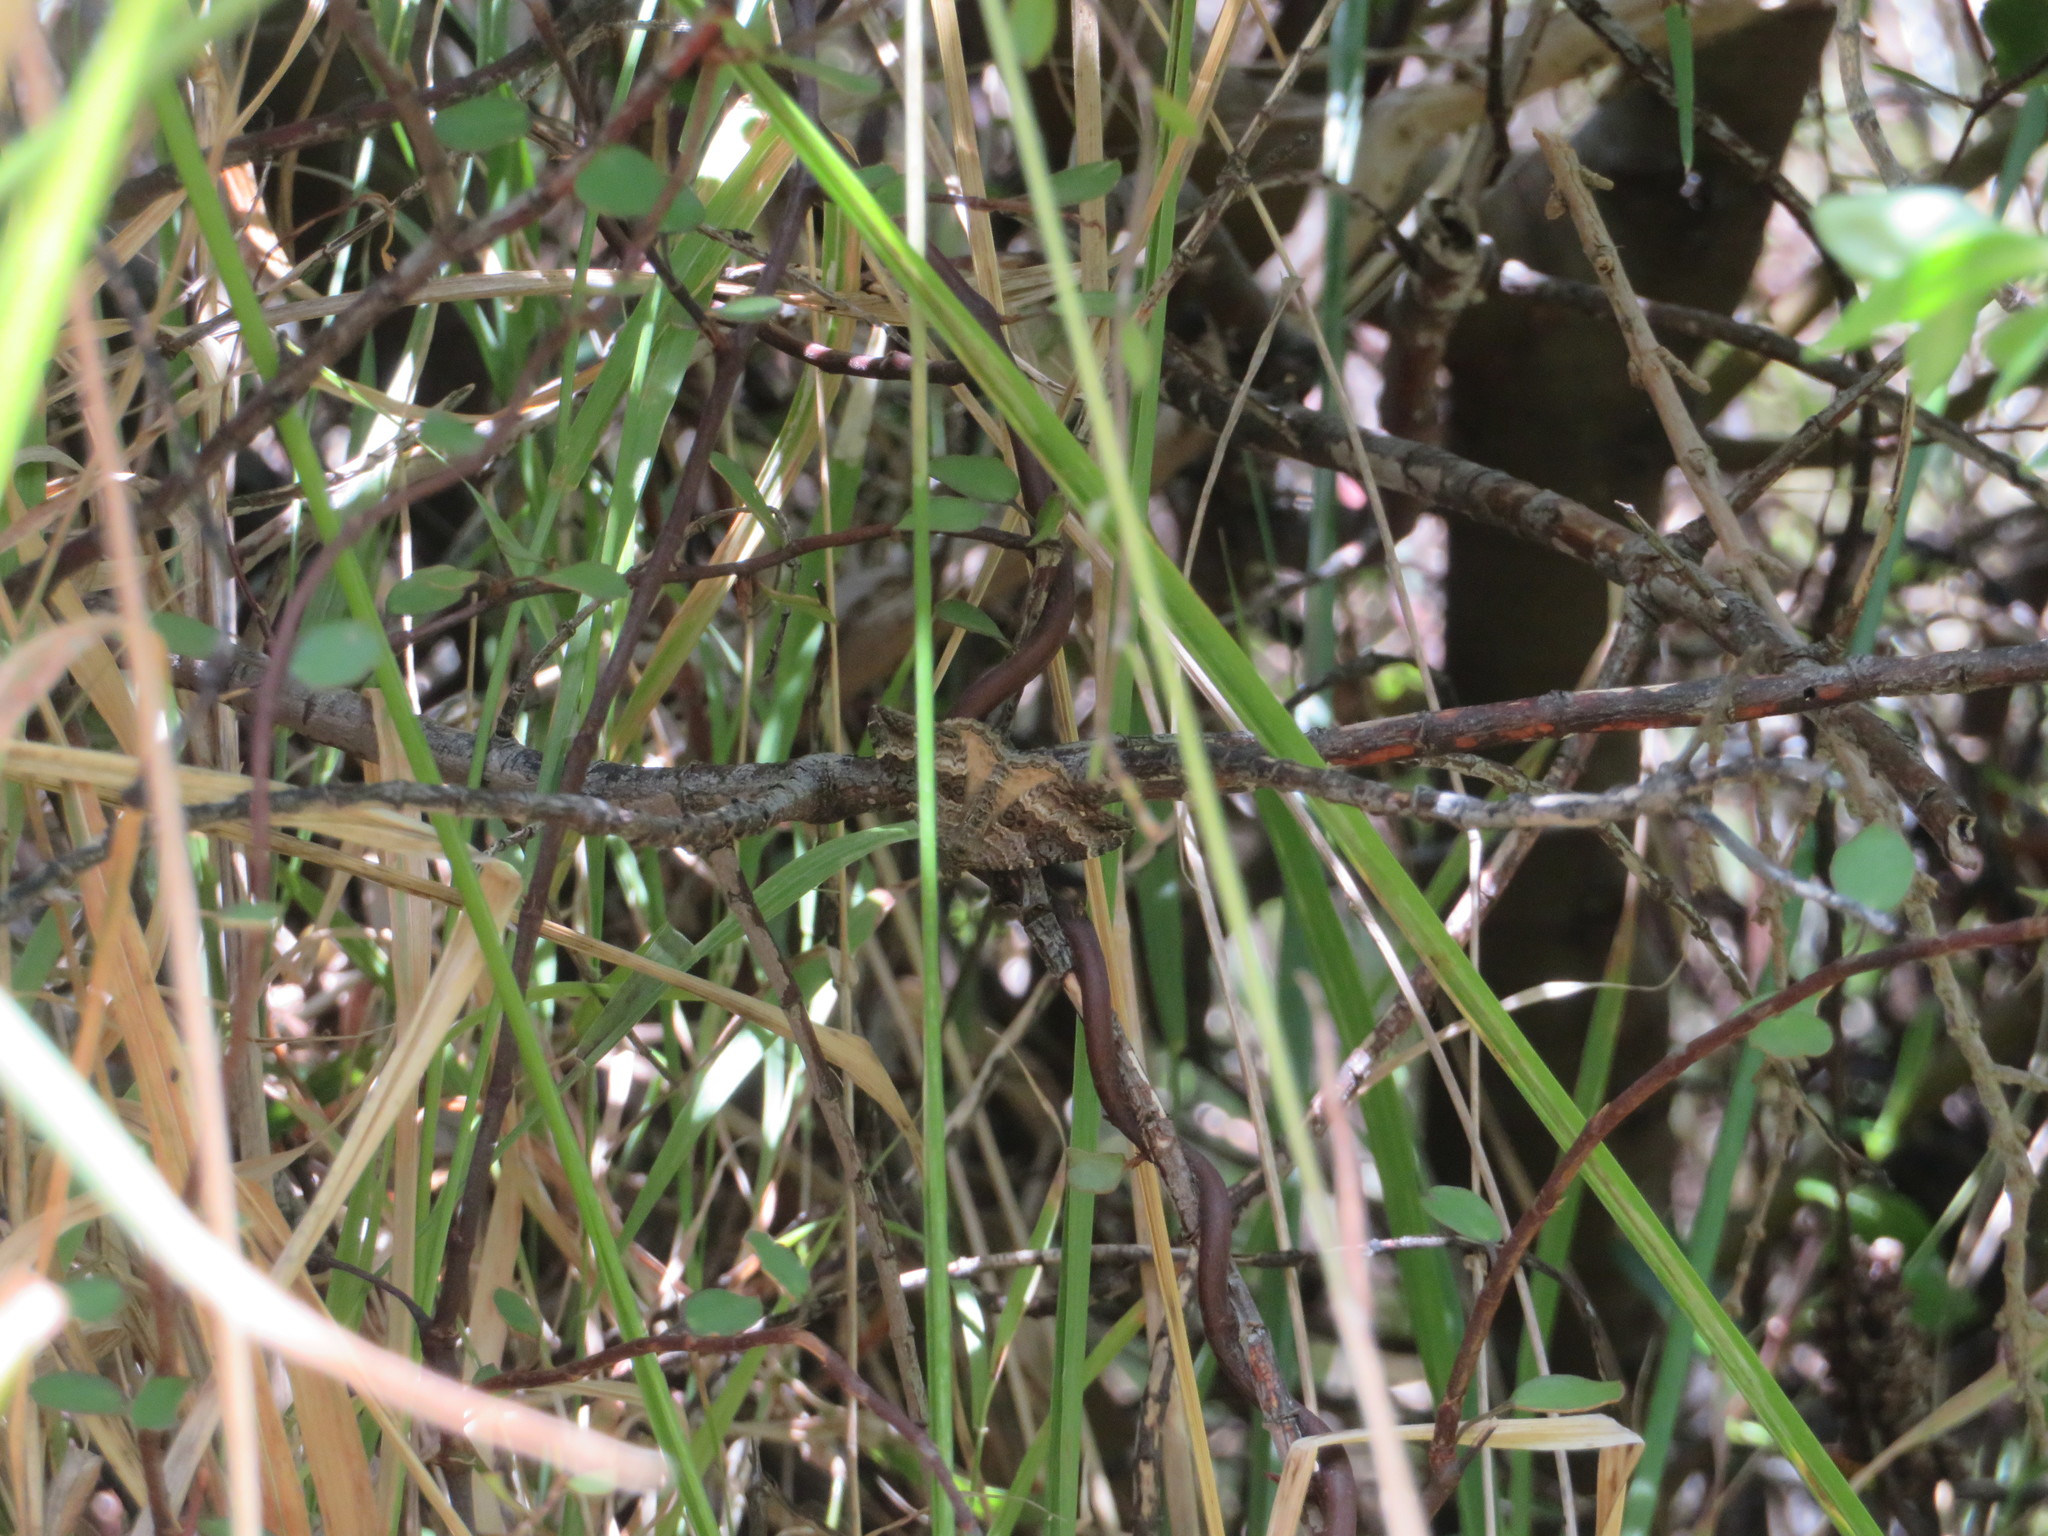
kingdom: Animalia
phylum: Arthropoda
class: Insecta
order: Lepidoptera
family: Geometridae
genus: Hydriomena
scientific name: Hydriomena deltoidata
